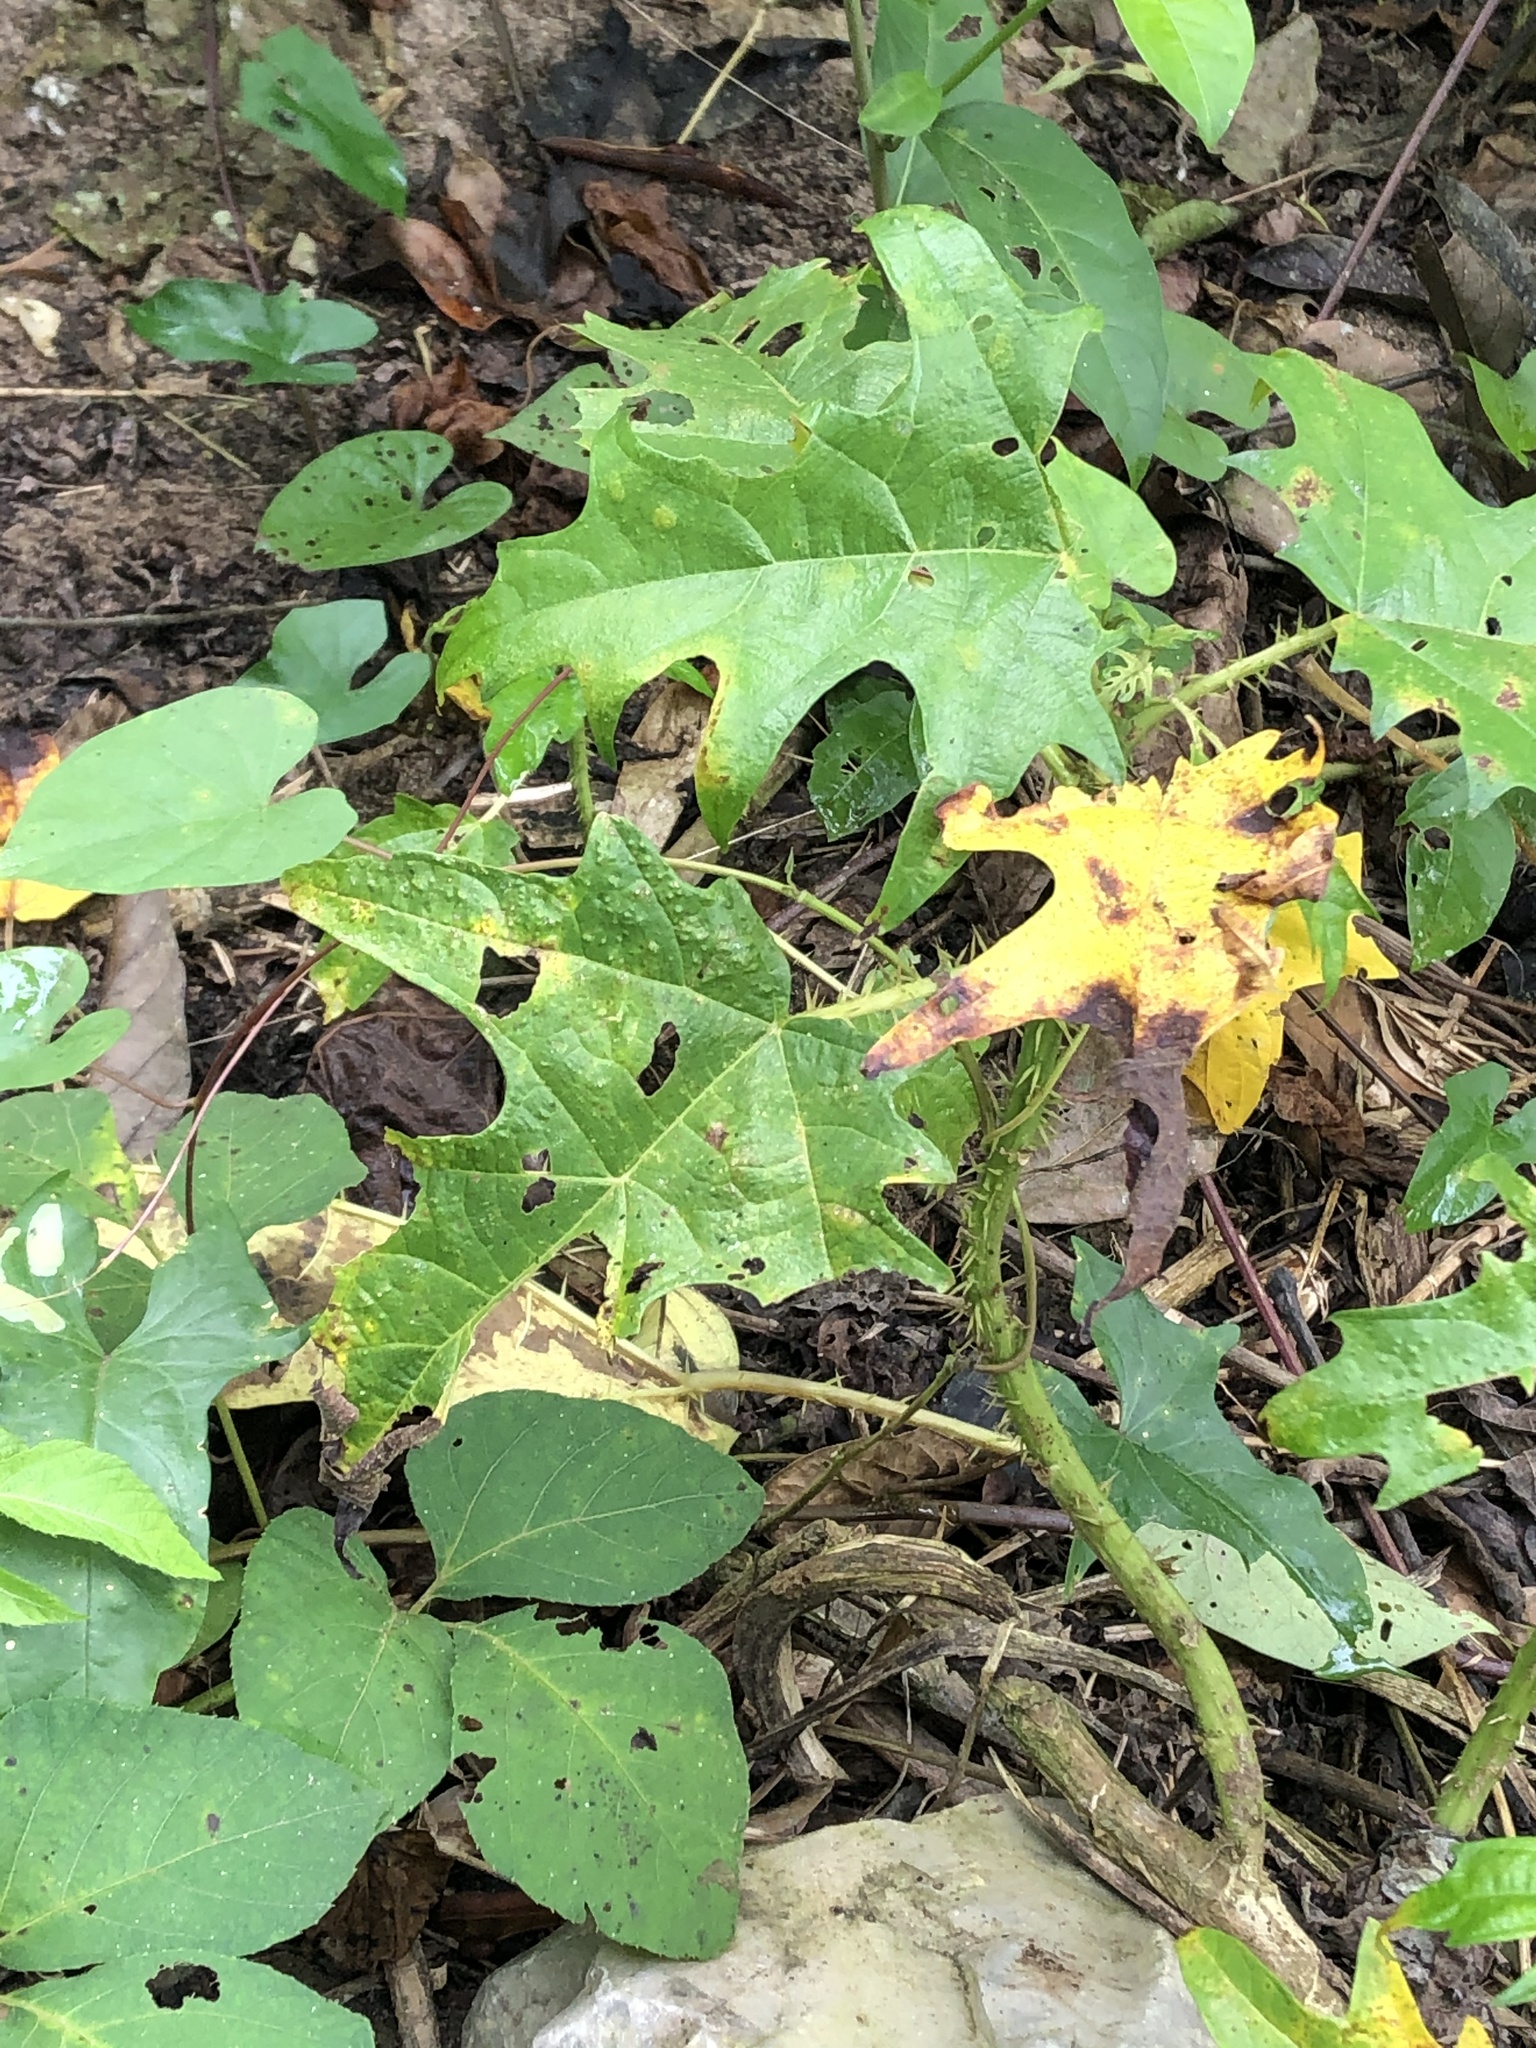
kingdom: Plantae
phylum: Tracheophyta
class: Magnoliopsida
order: Rosales
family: Urticaceae
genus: Urera
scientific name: Urera laciniata
